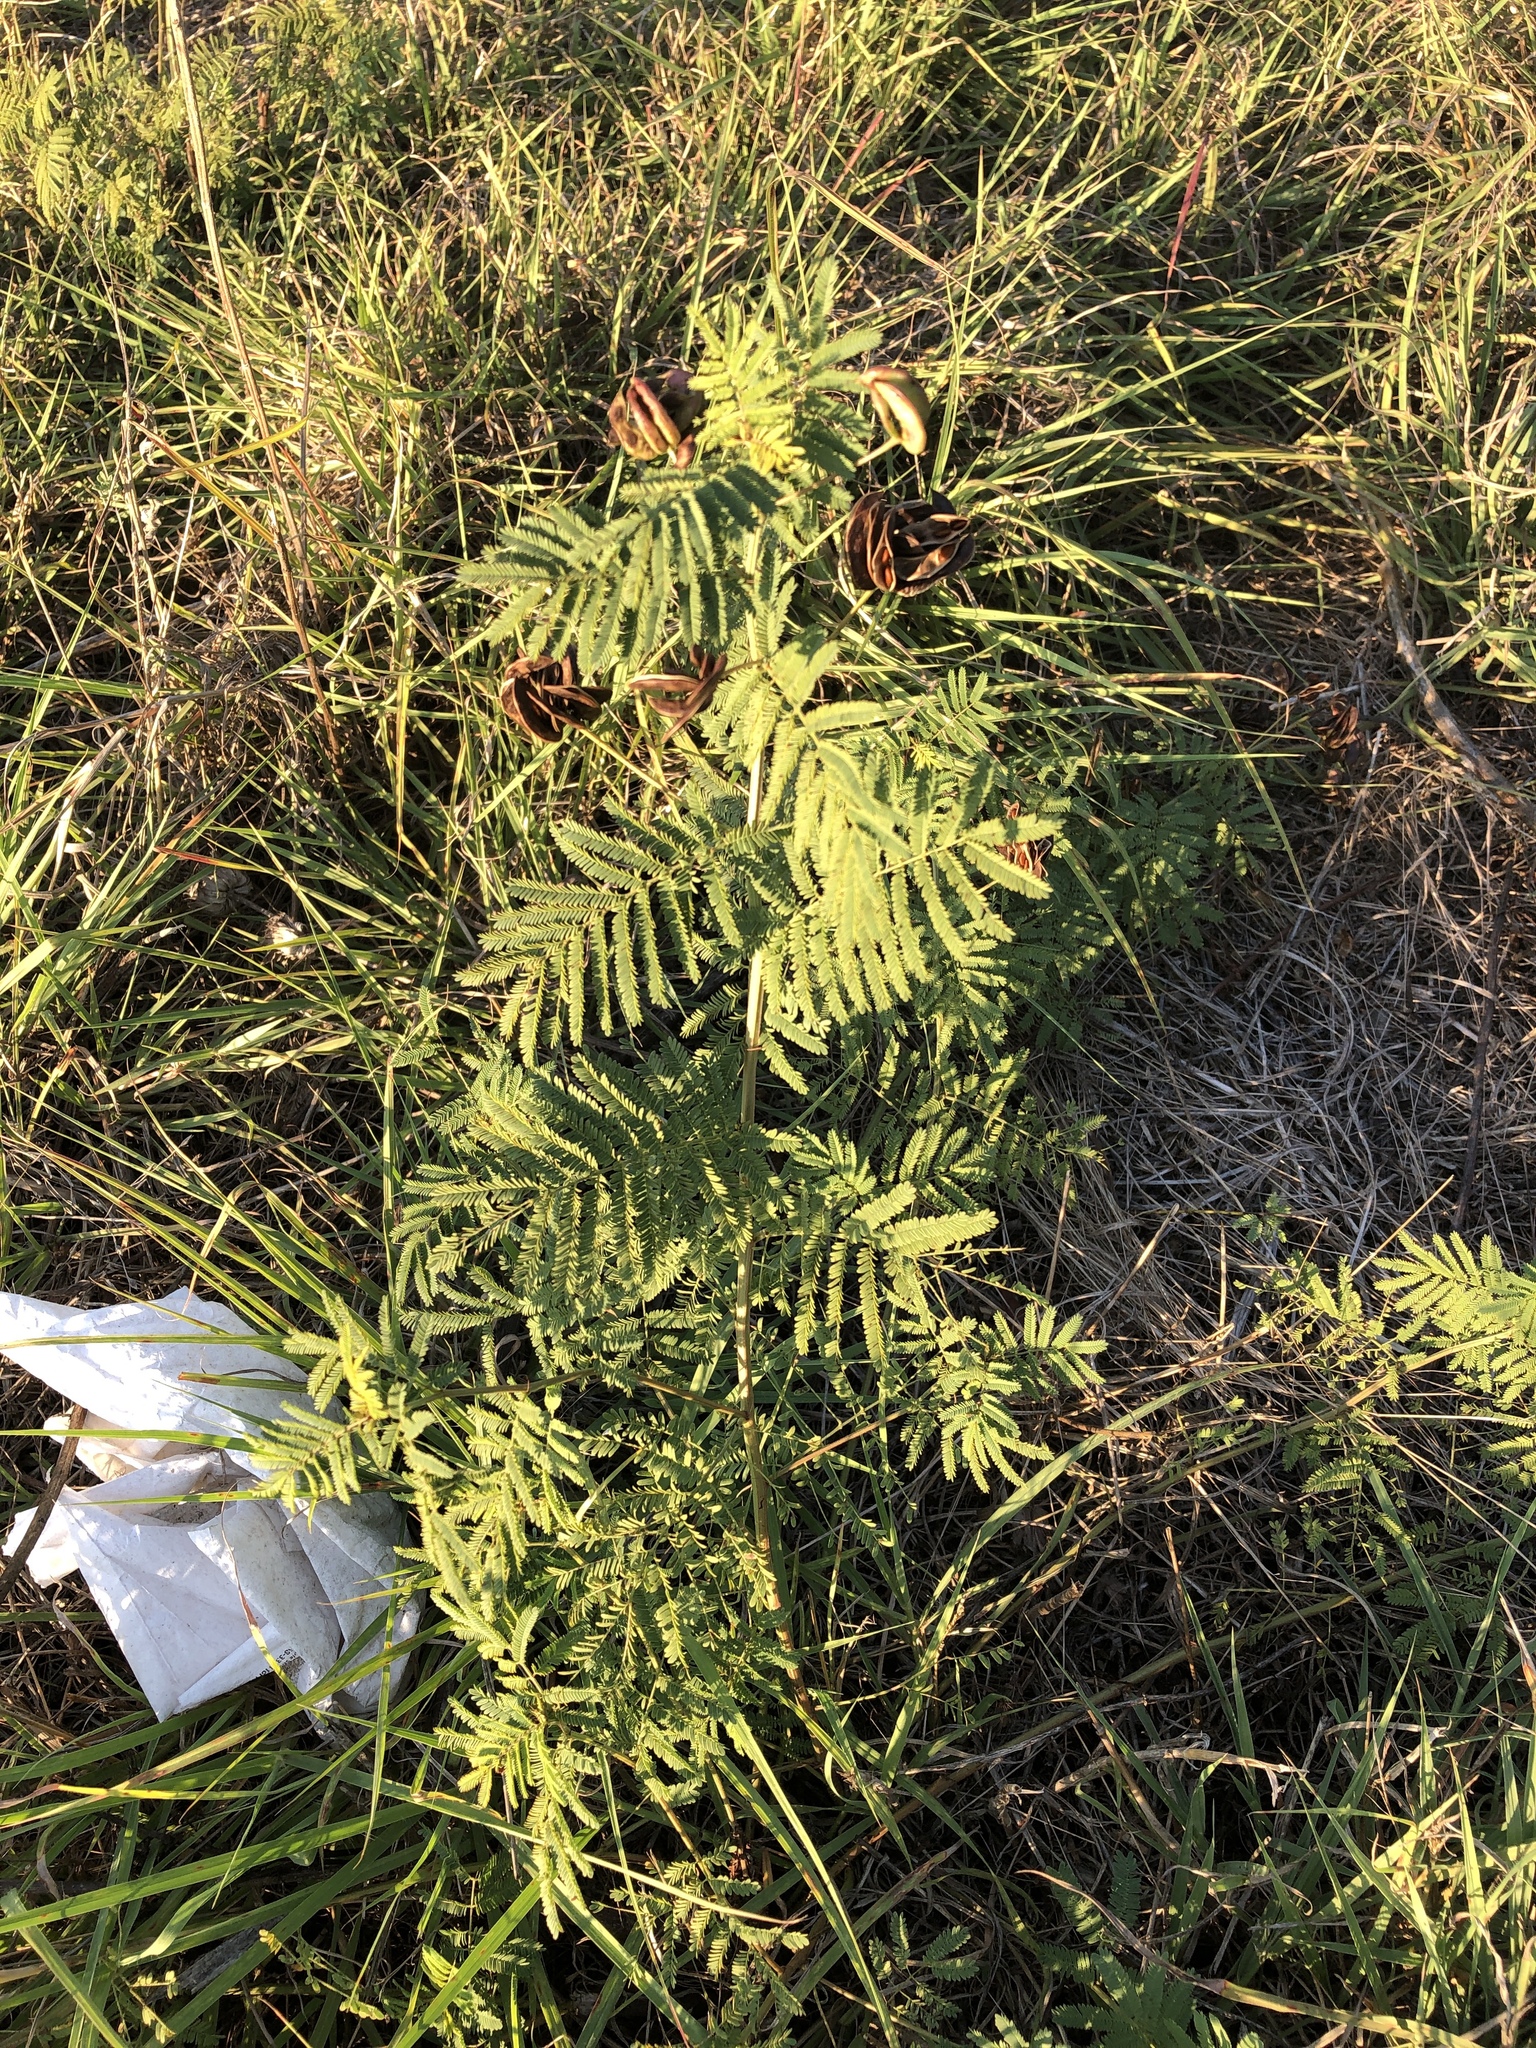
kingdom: Plantae
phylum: Tracheophyta
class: Magnoliopsida
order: Fabales
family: Fabaceae
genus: Desmanthus
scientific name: Desmanthus illinoensis
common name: Illinois bundle-flower
